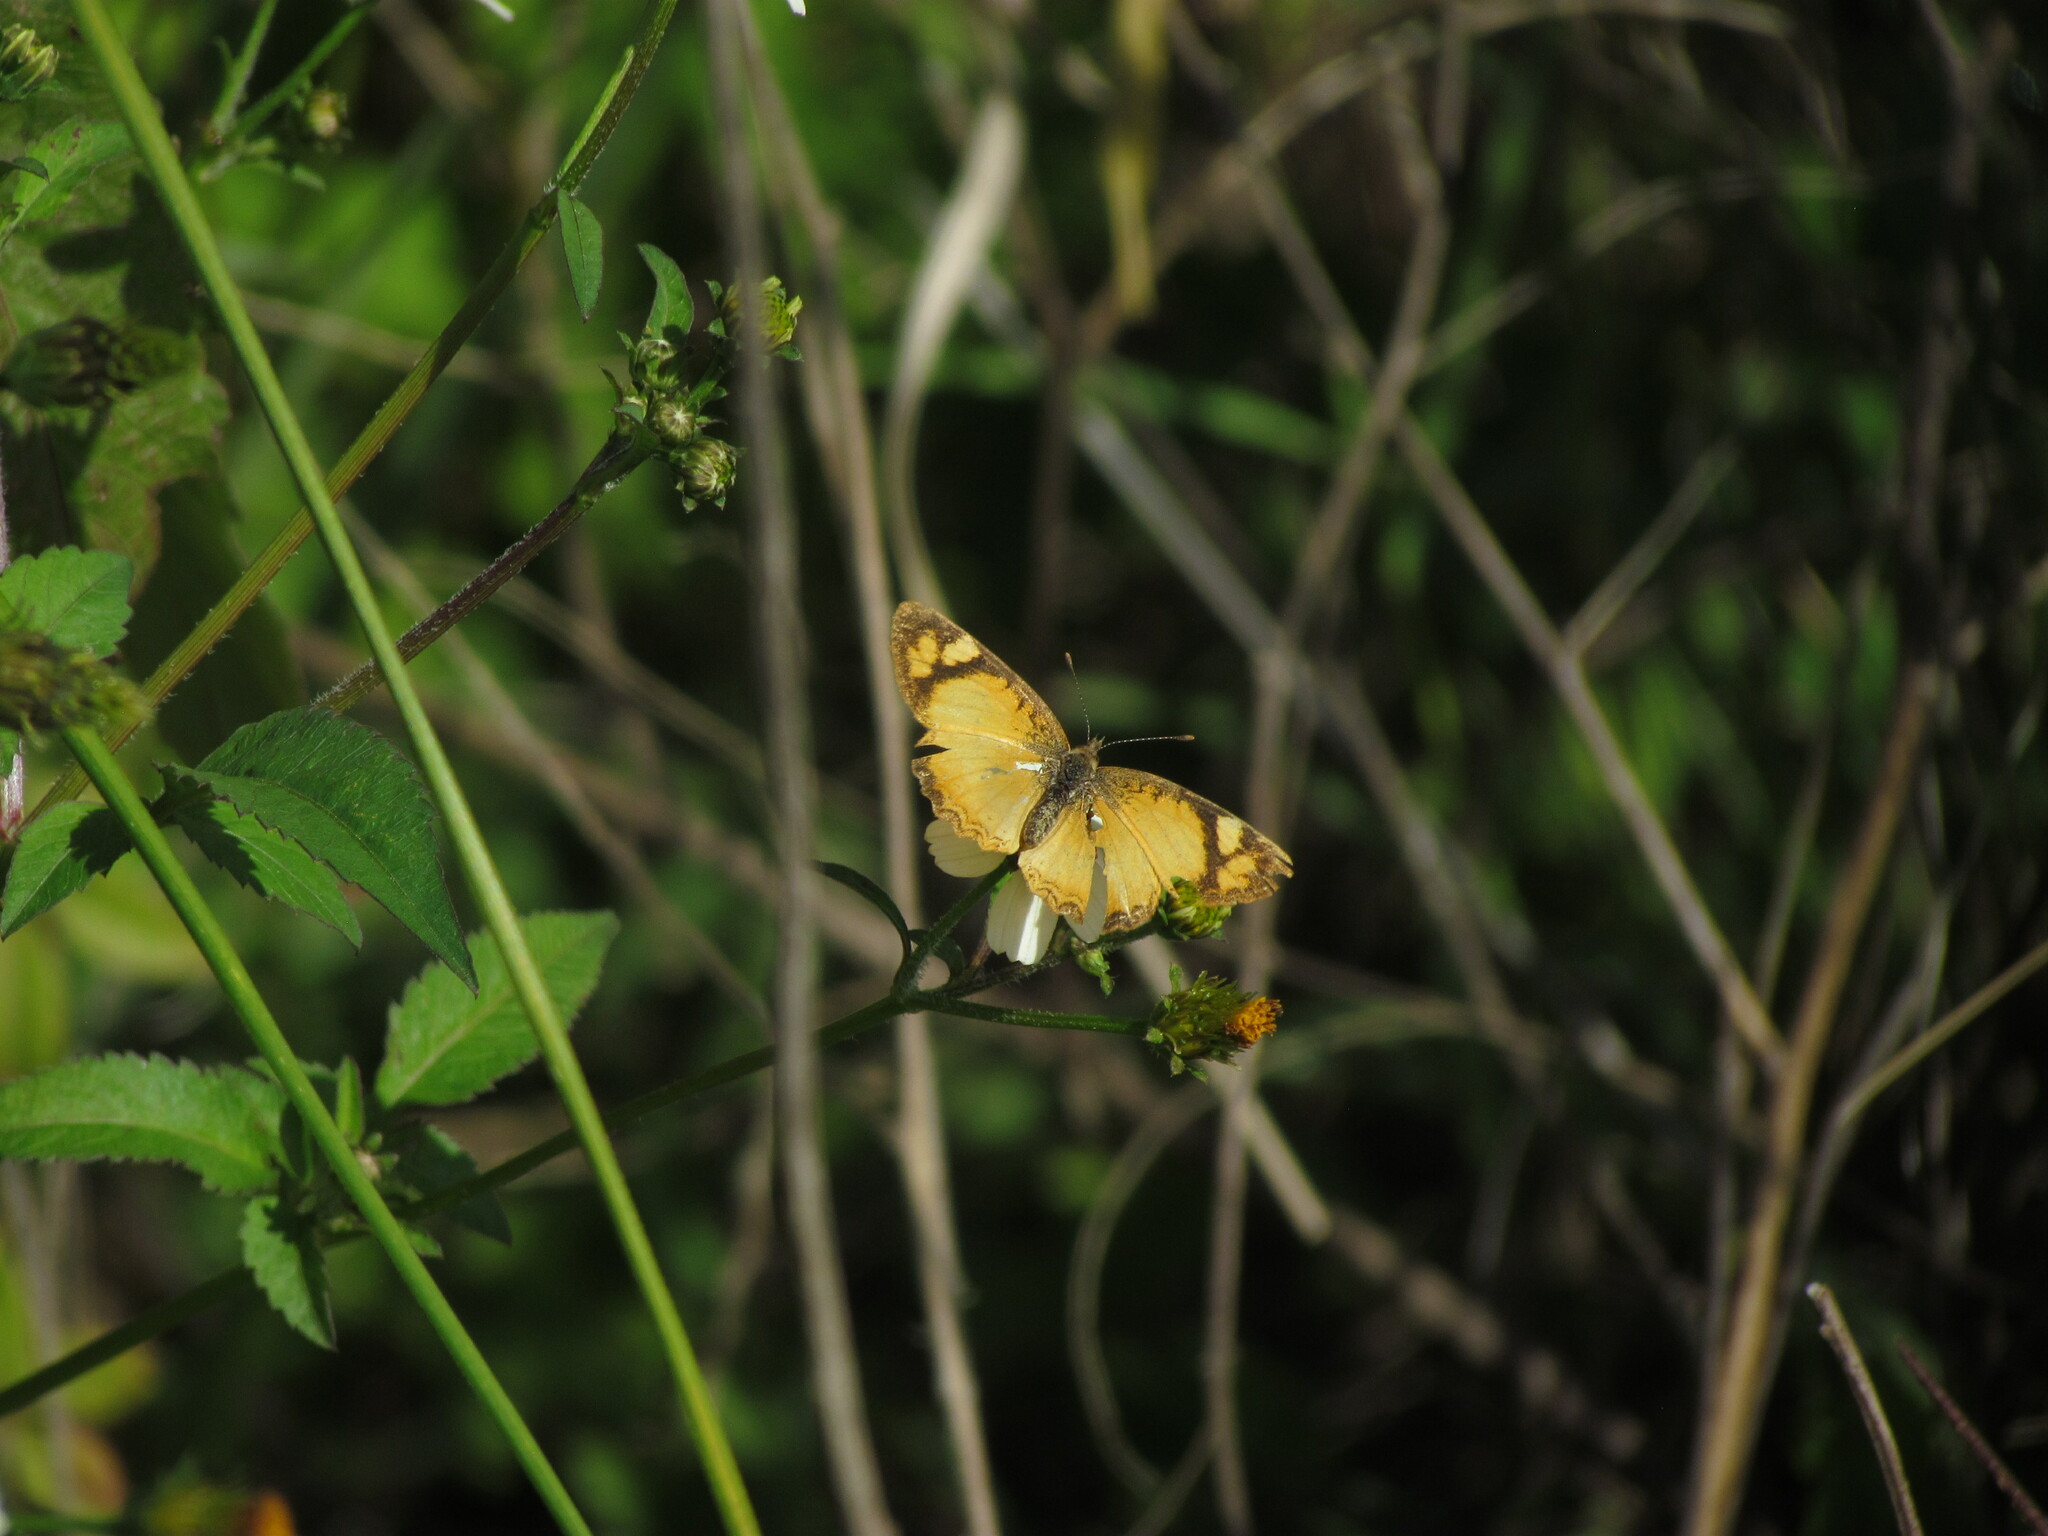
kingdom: Animalia
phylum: Arthropoda
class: Insecta
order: Lepidoptera
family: Nymphalidae
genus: Tegosa
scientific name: Tegosa claudina
